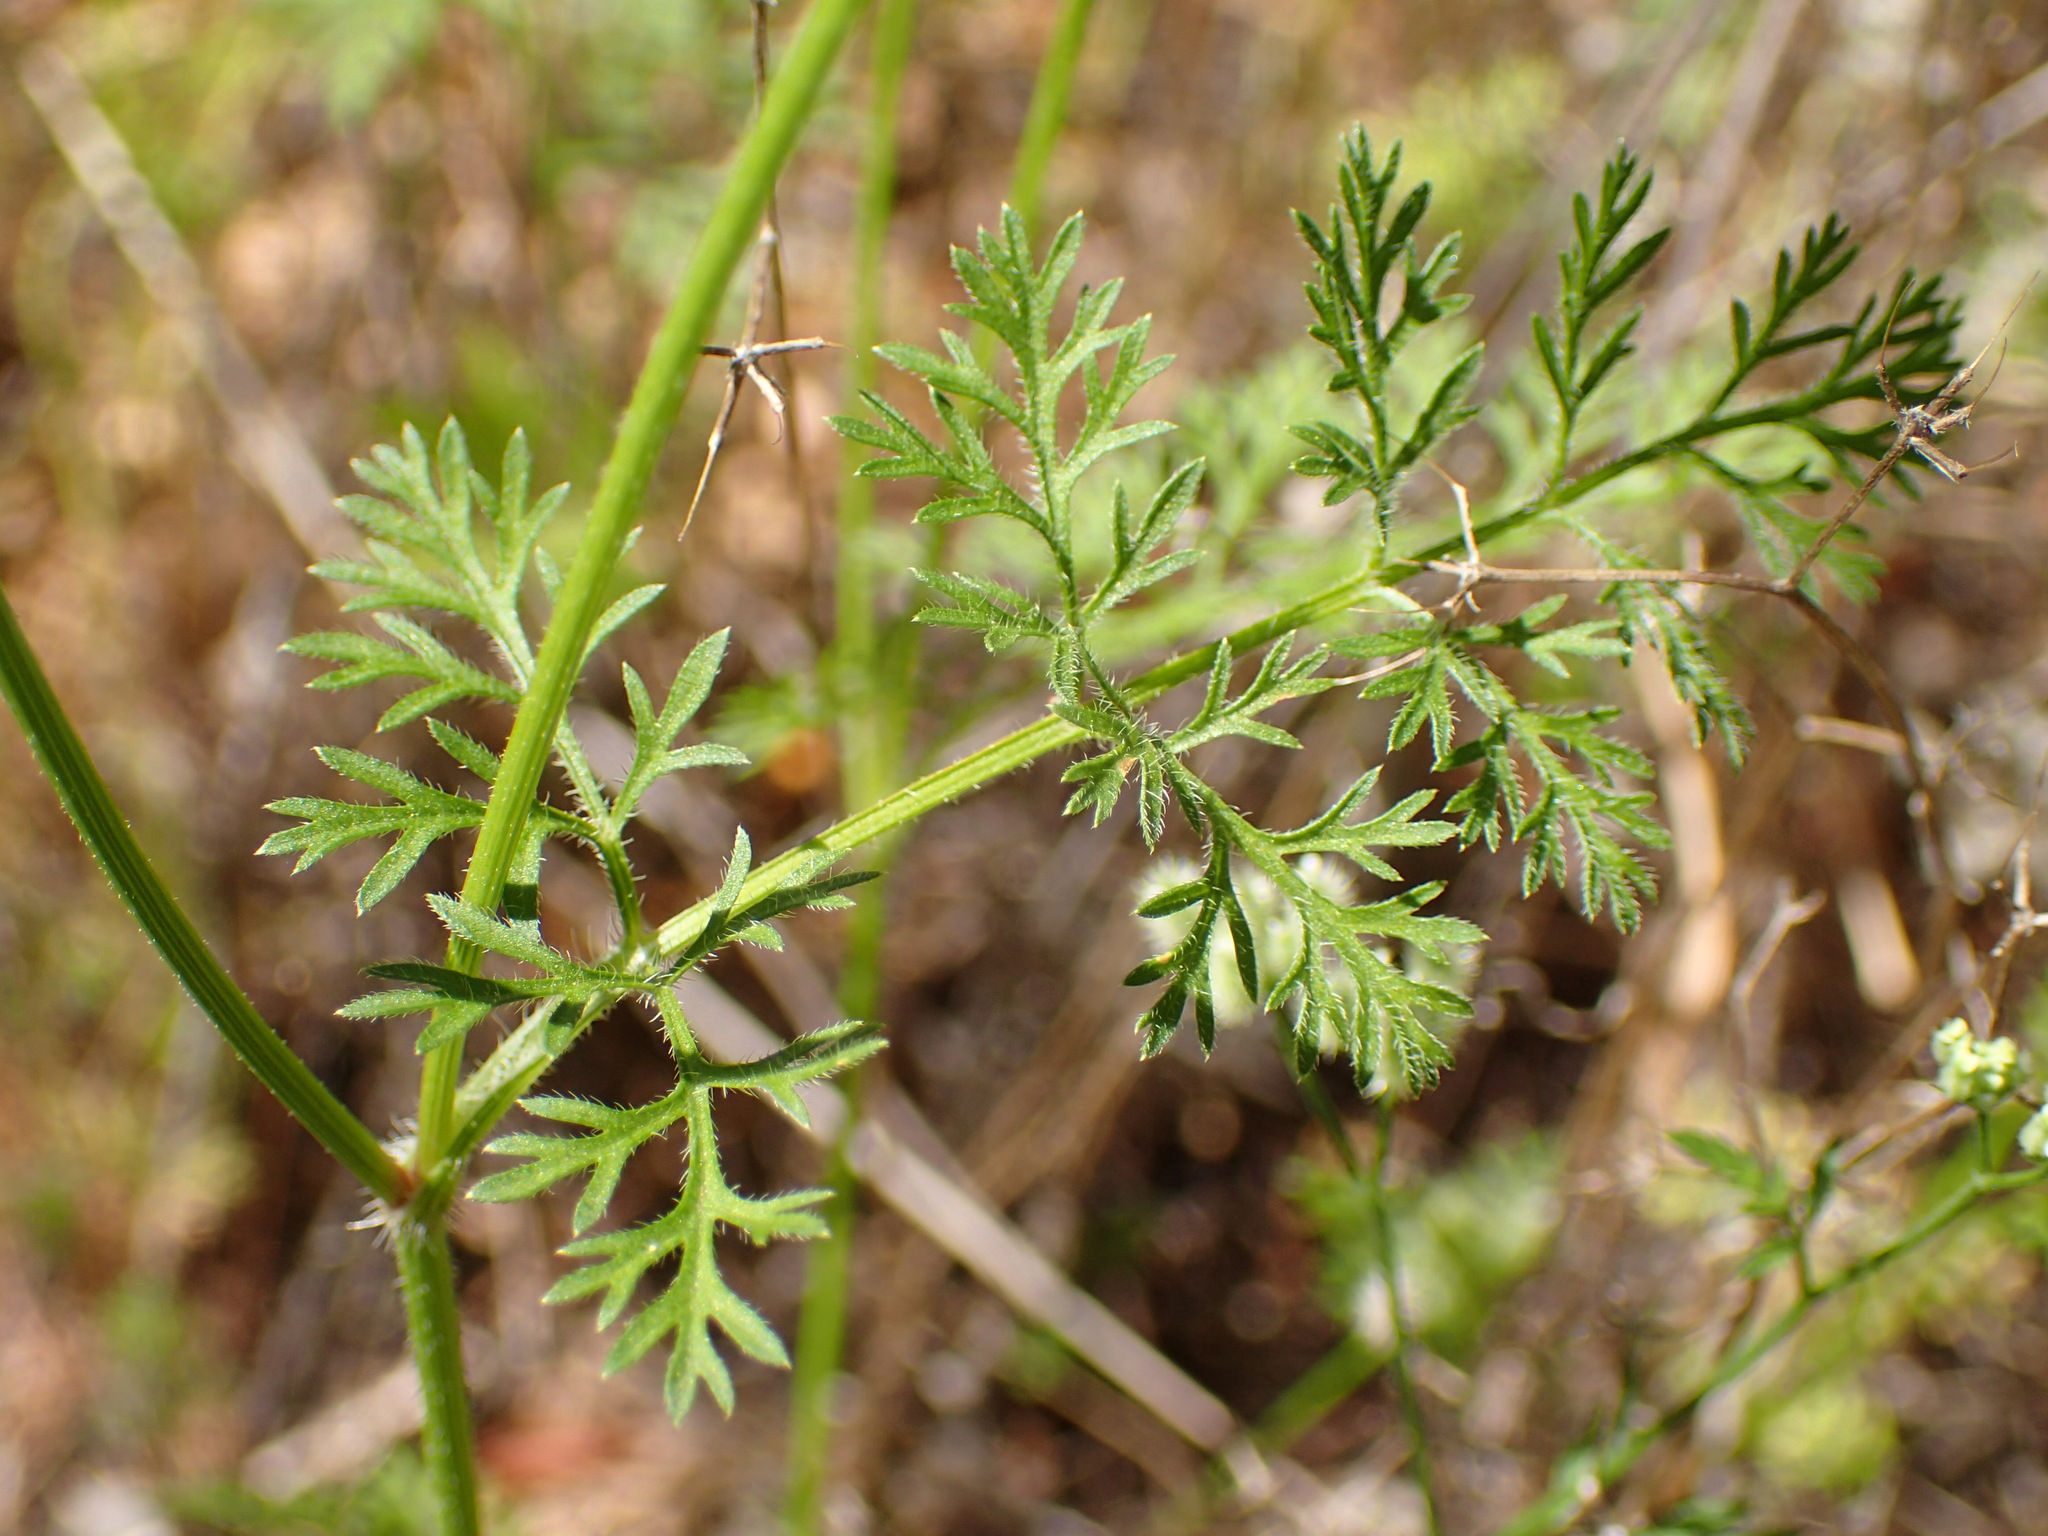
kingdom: Plantae
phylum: Tracheophyta
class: Magnoliopsida
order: Apiales
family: Apiaceae
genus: Daucus
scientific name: Daucus pusillus
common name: Southwest wild carrot
